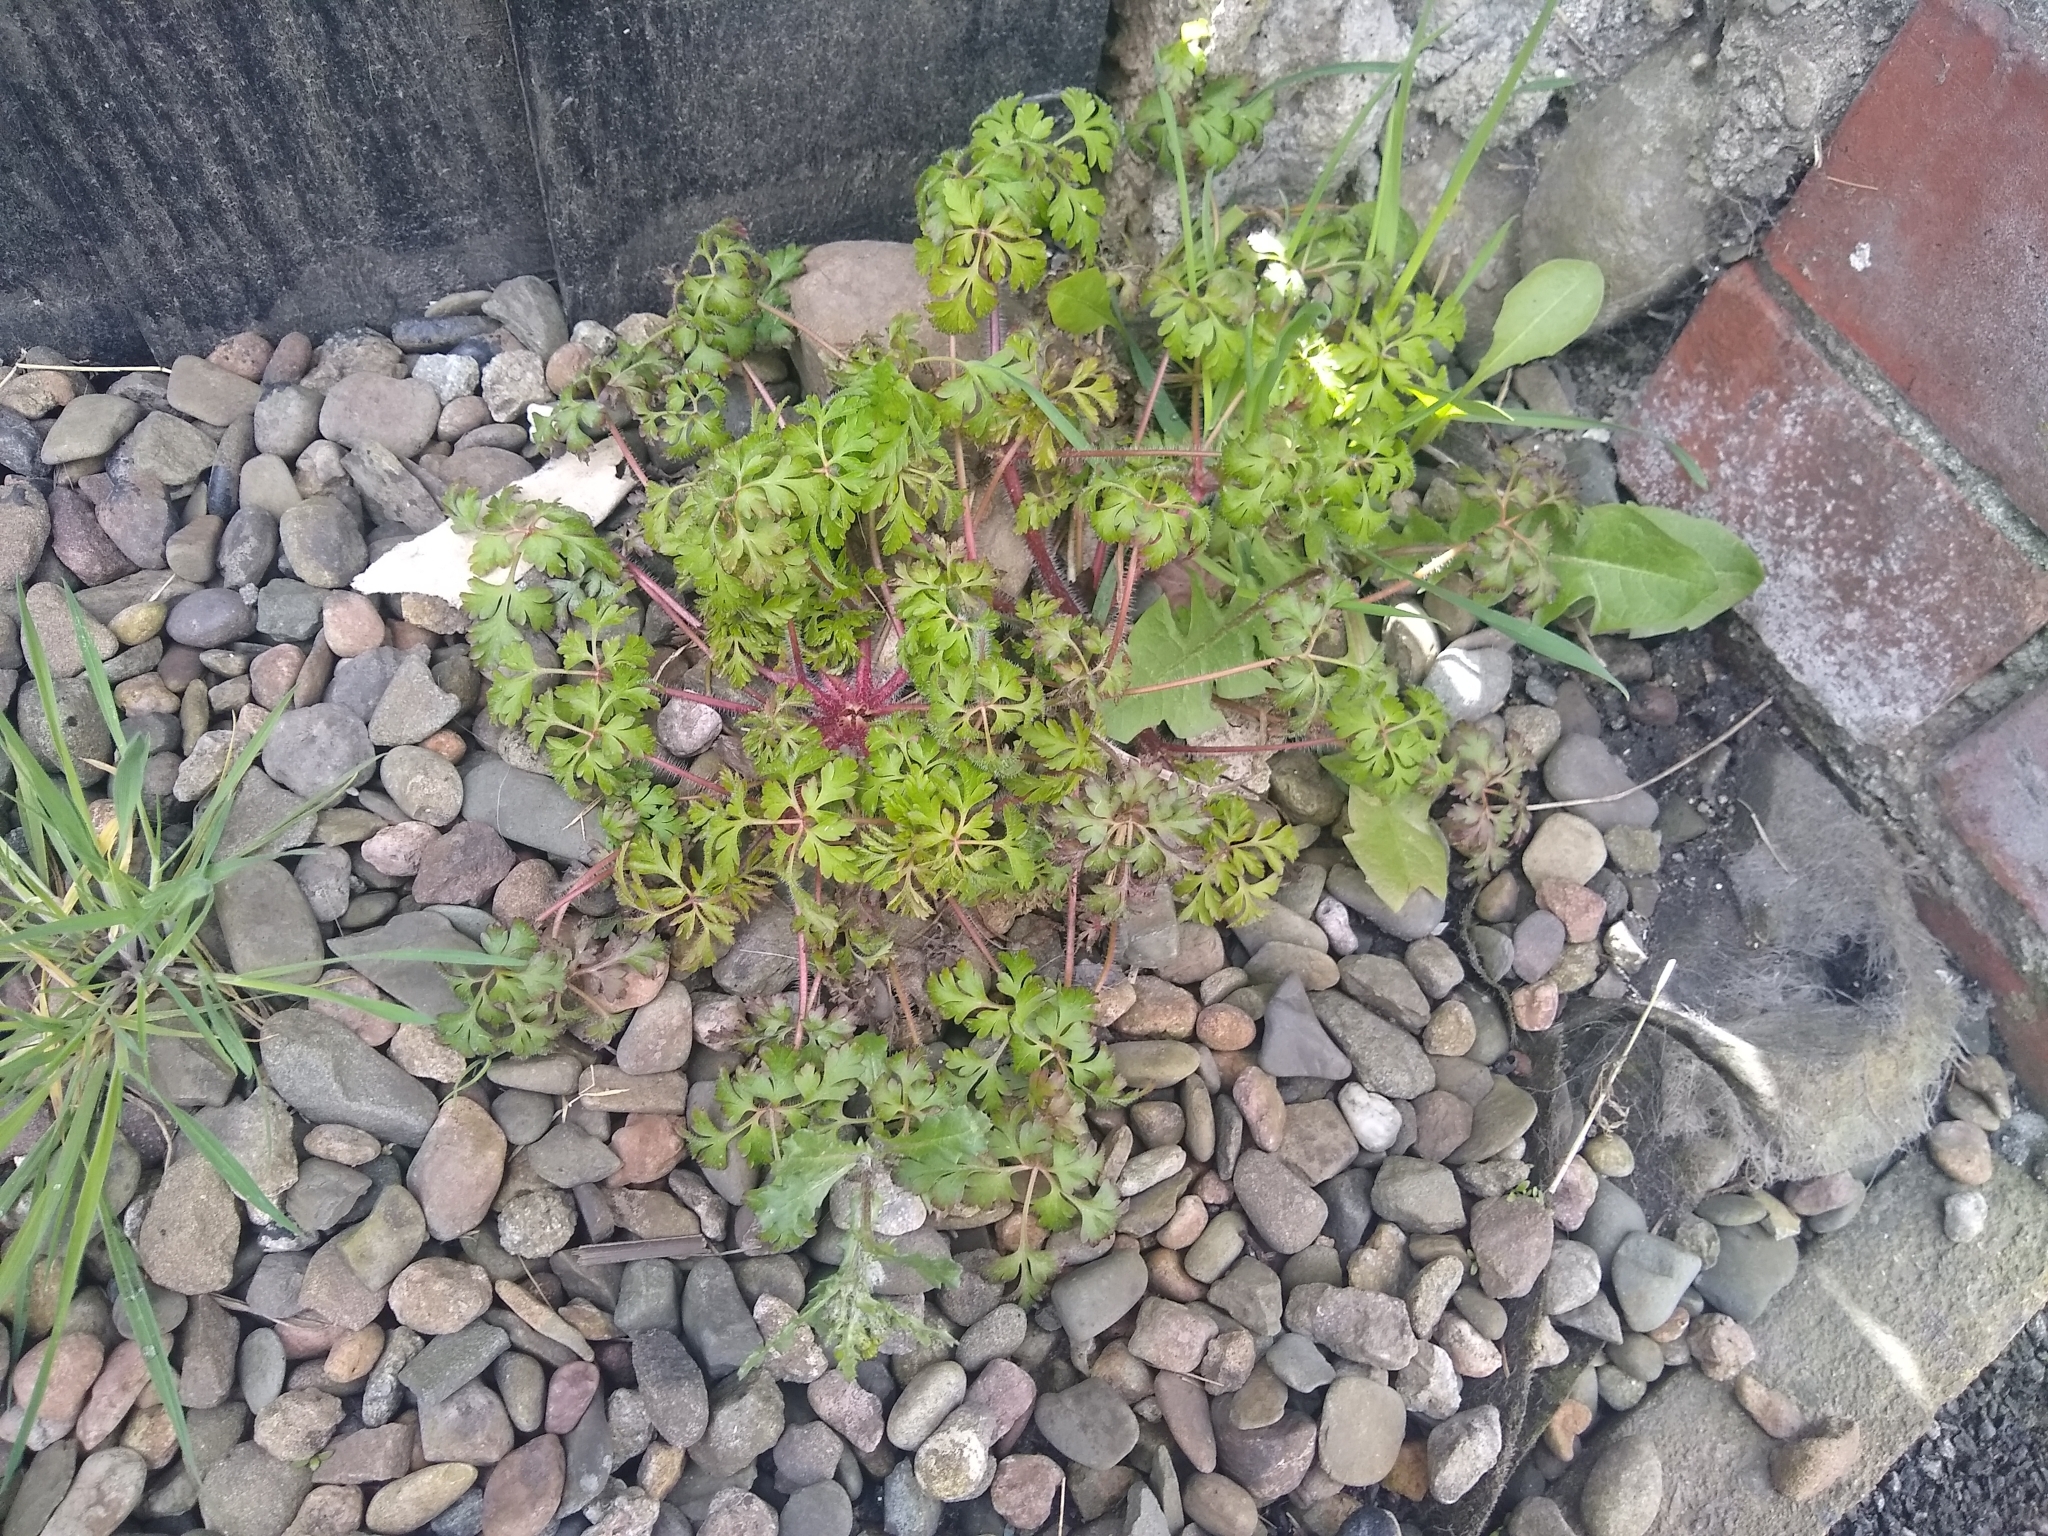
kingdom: Plantae
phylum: Tracheophyta
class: Magnoliopsida
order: Geraniales
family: Geraniaceae
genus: Geranium
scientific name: Geranium robertianum
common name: Herb-robert
